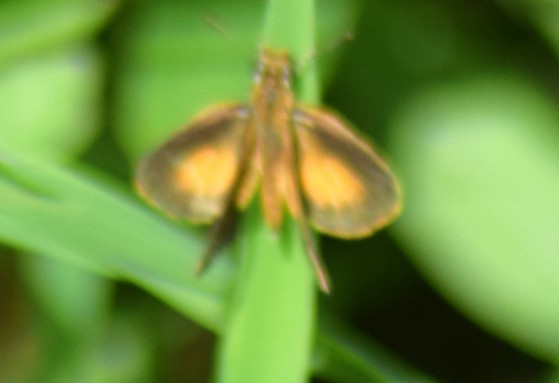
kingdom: Animalia
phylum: Arthropoda
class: Insecta
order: Lepidoptera
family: Hesperiidae
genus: Ancyloxypha
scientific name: Ancyloxypha numitor
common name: Least skipper
